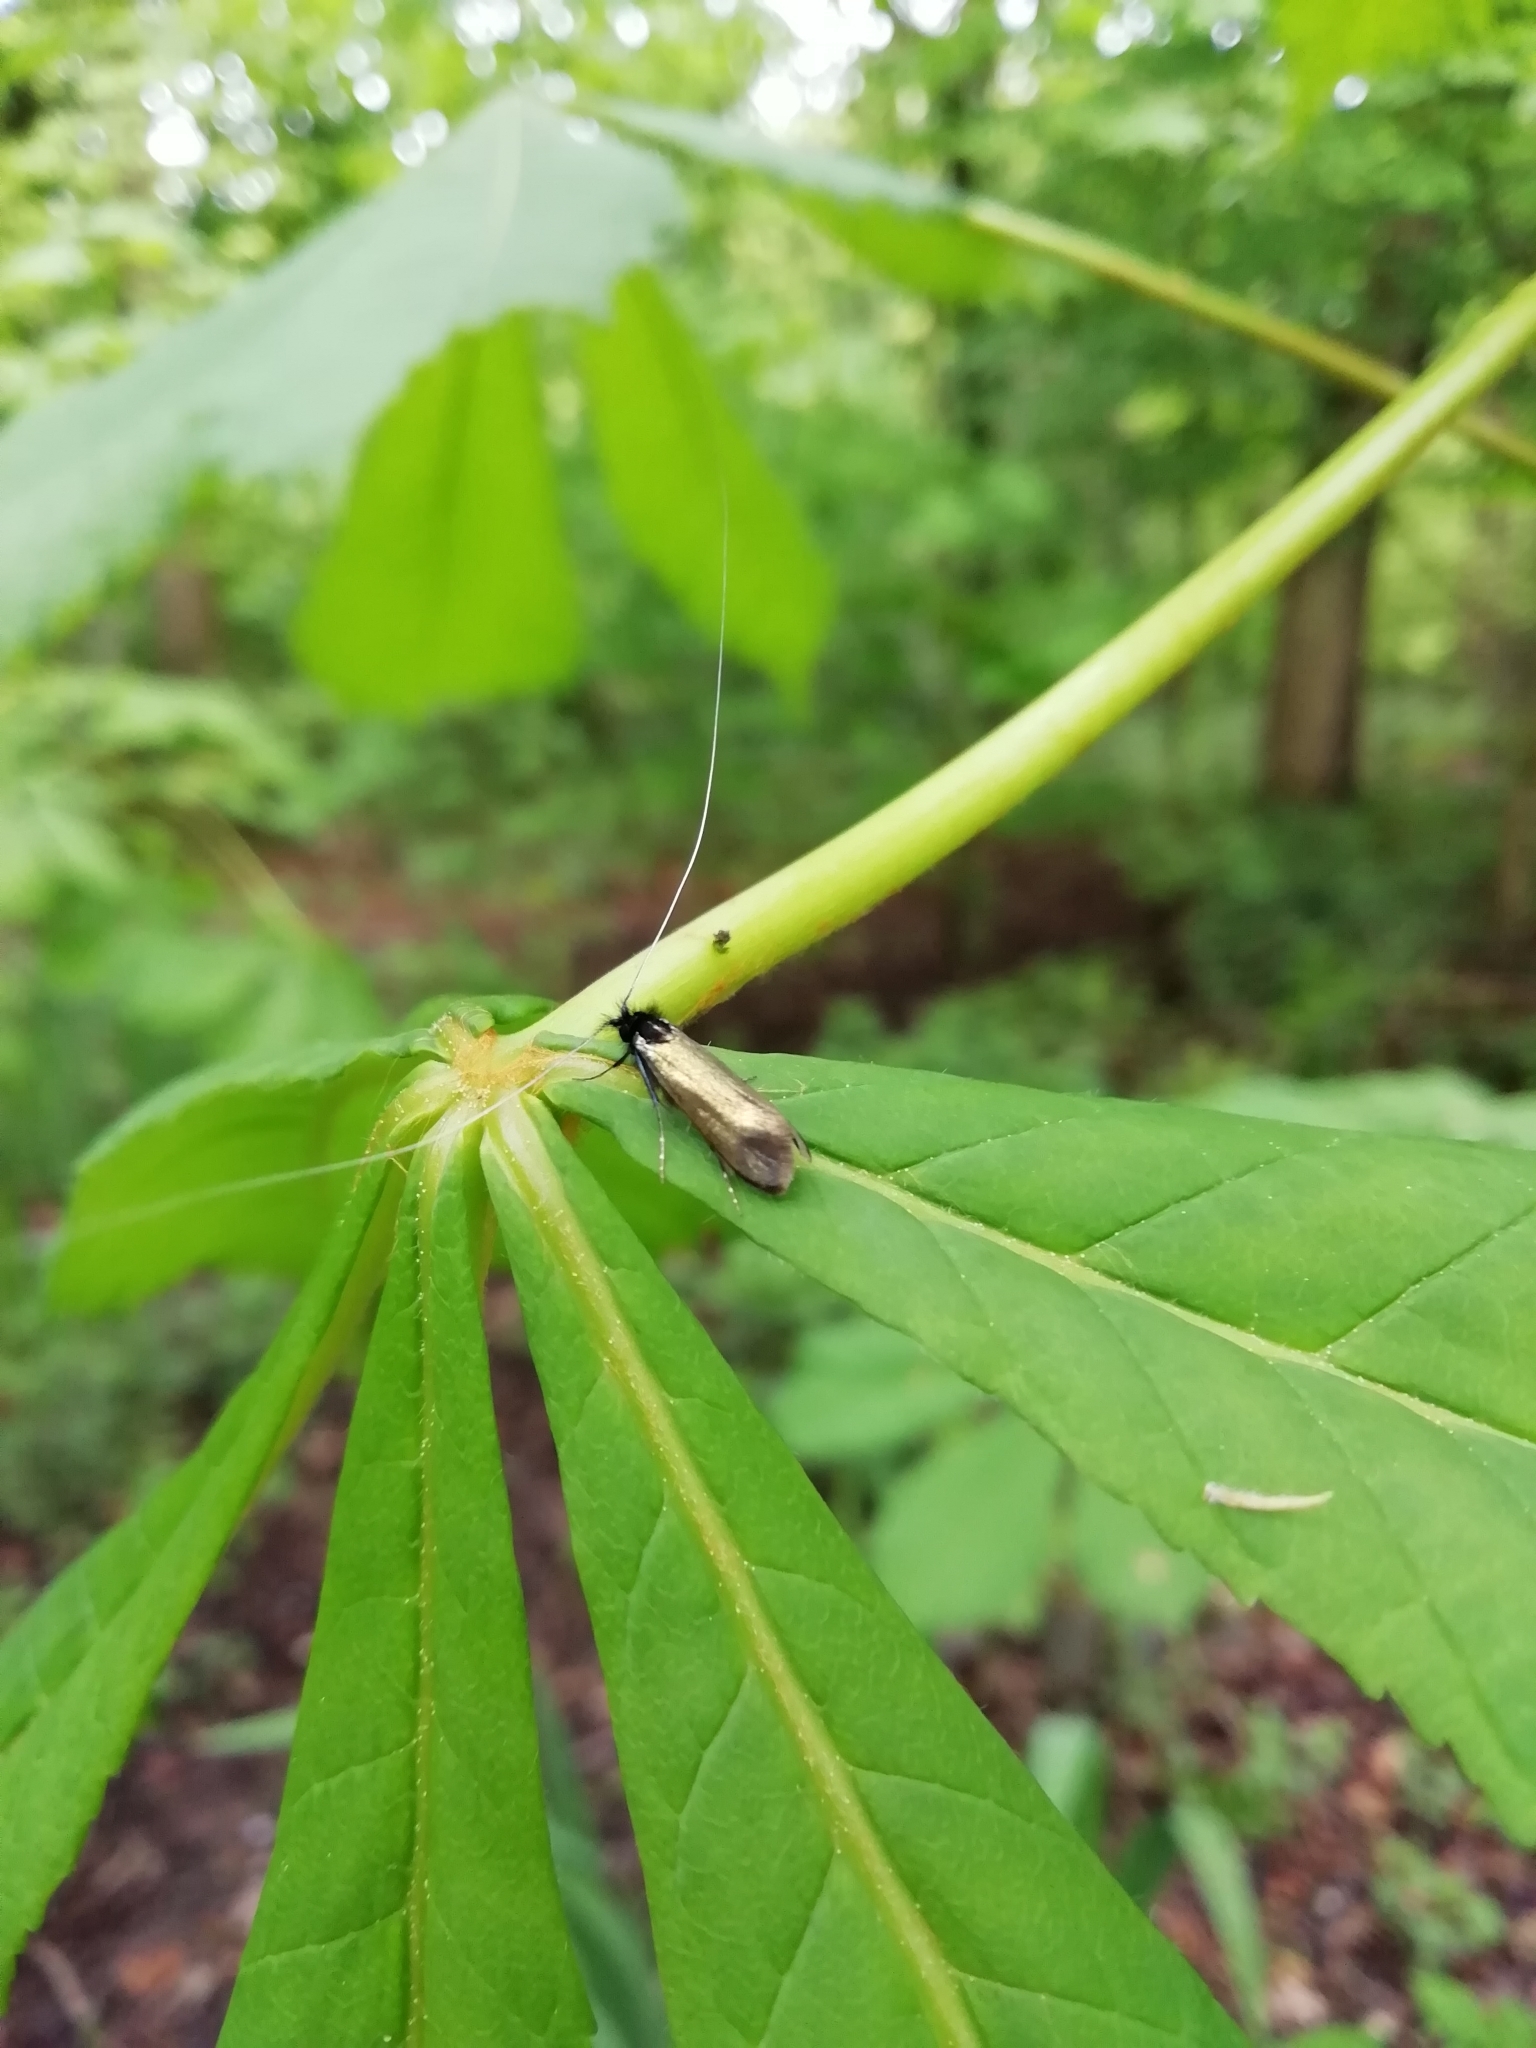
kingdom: Animalia
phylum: Arthropoda
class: Insecta
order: Lepidoptera
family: Adelidae
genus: Adela
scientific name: Adela viridella
